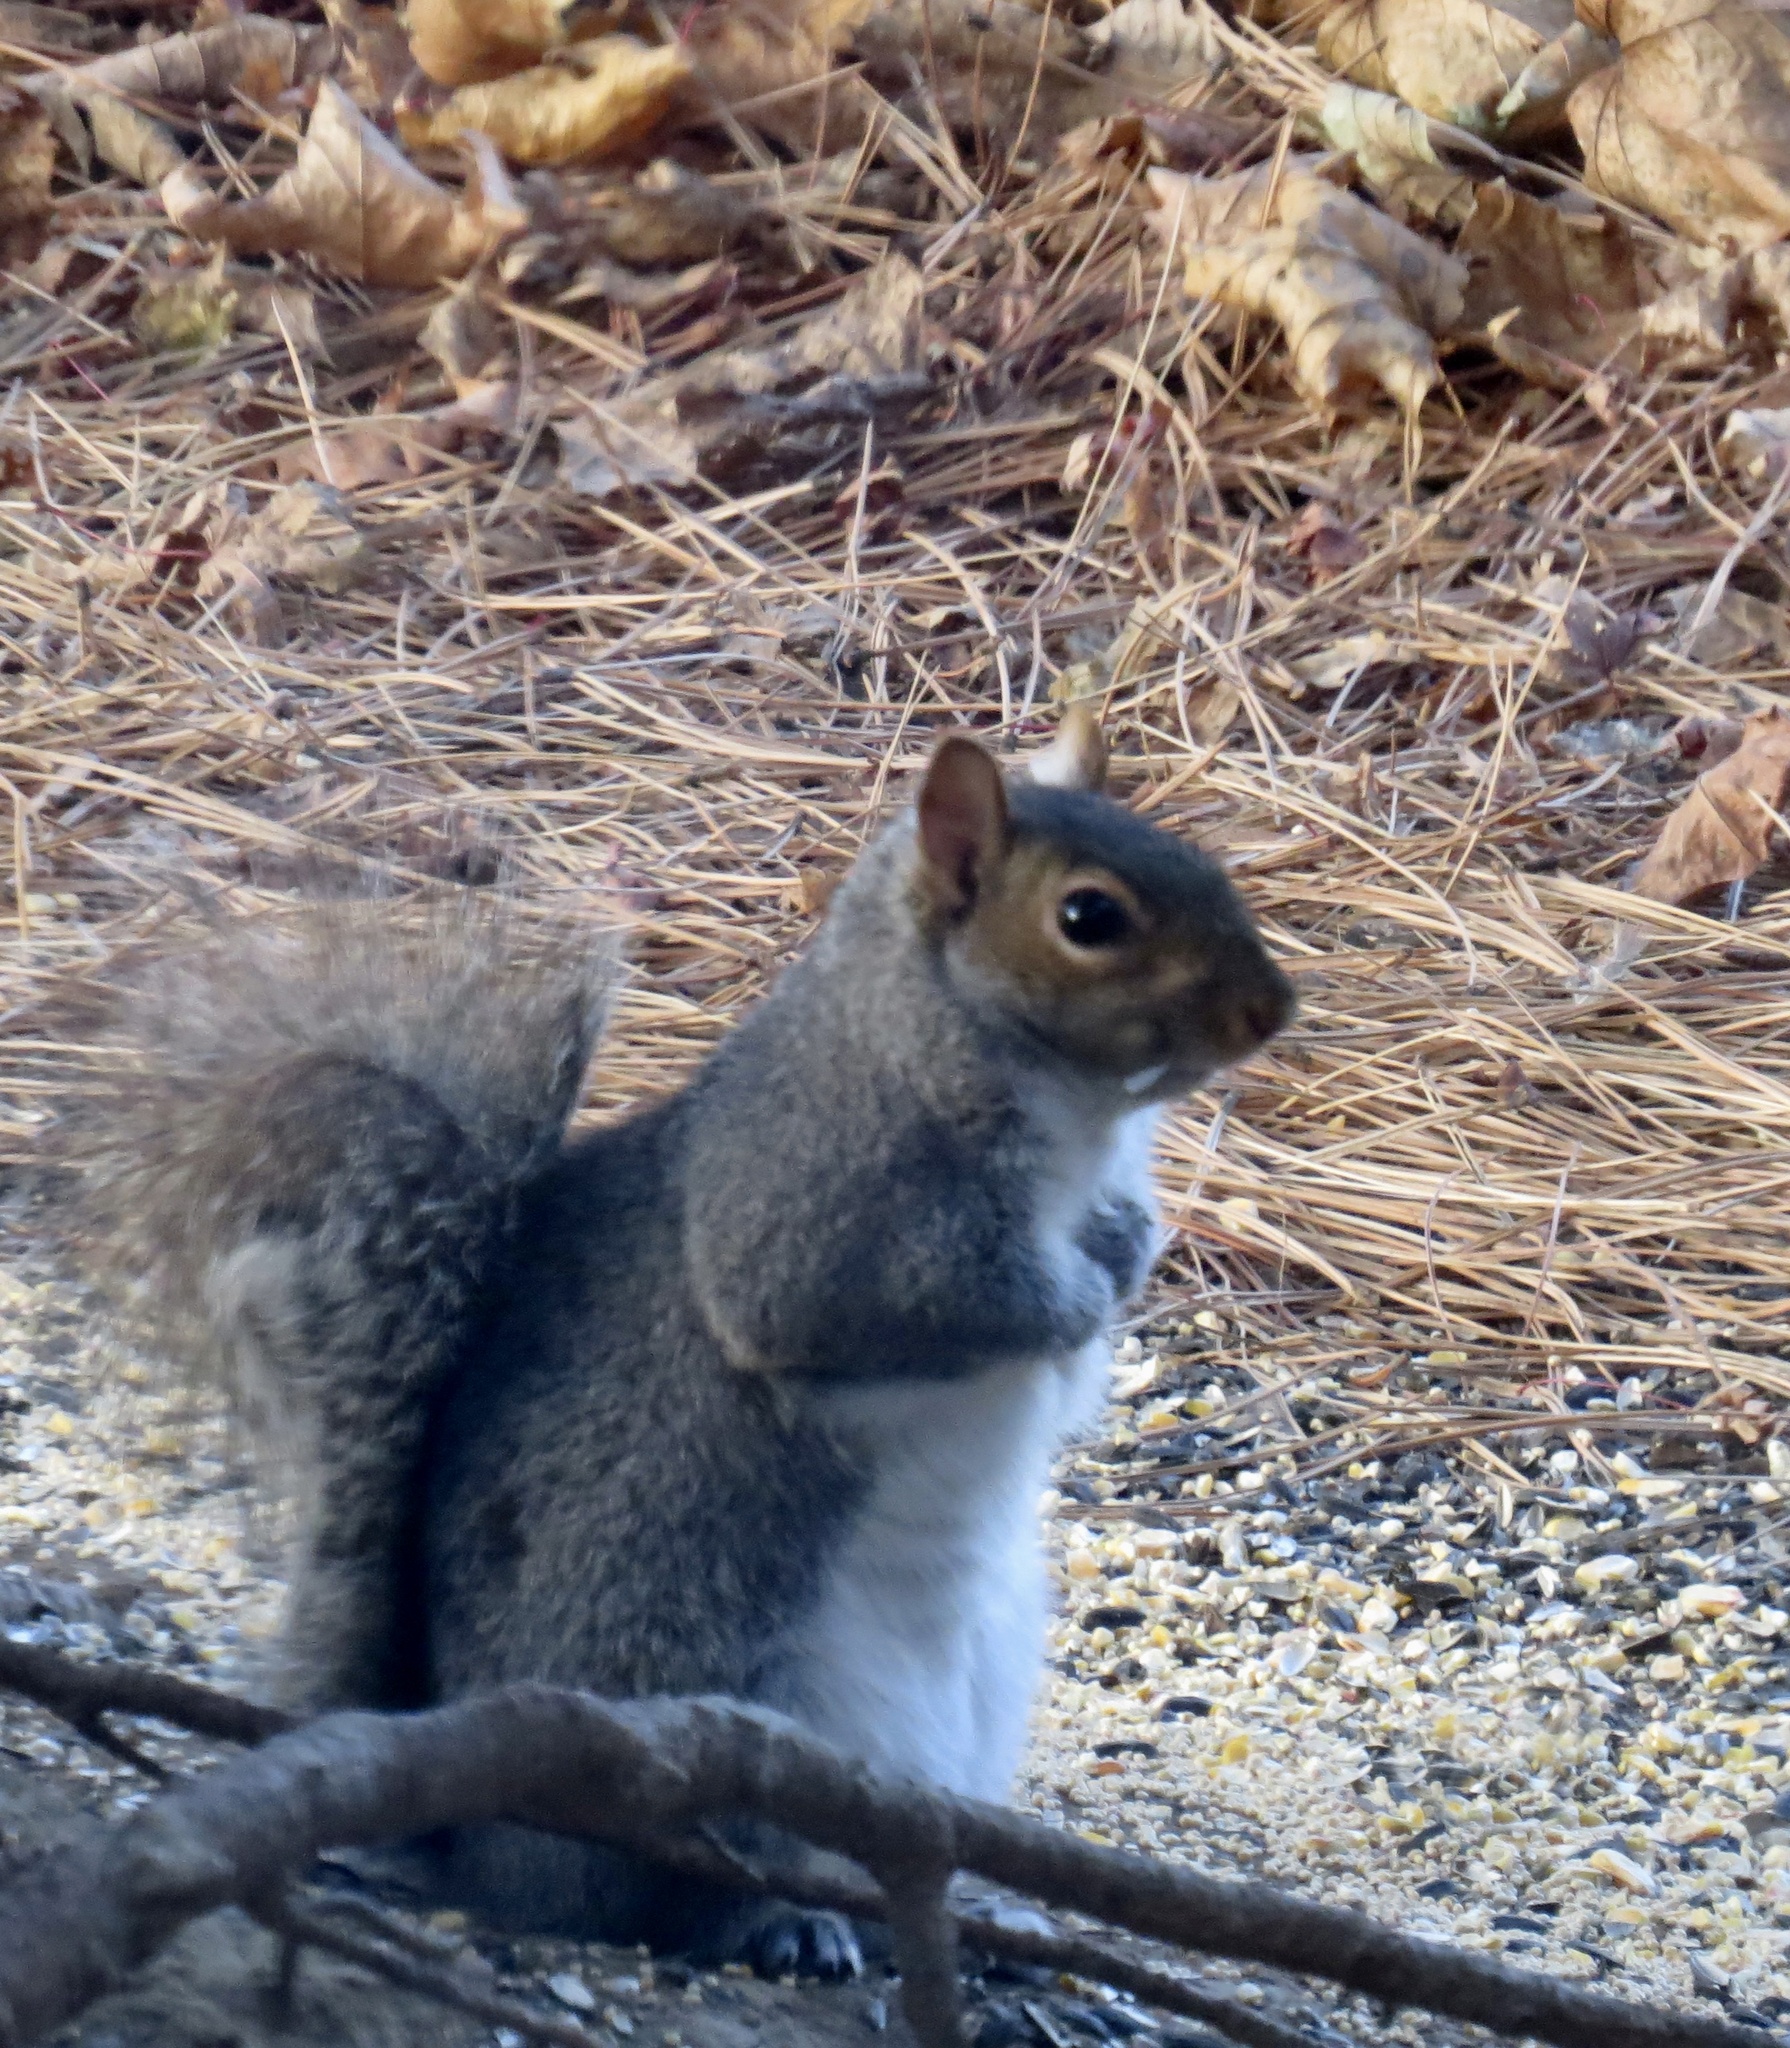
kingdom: Animalia
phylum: Chordata
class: Mammalia
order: Rodentia
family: Sciuridae
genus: Sciurus
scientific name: Sciurus carolinensis
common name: Eastern gray squirrel
